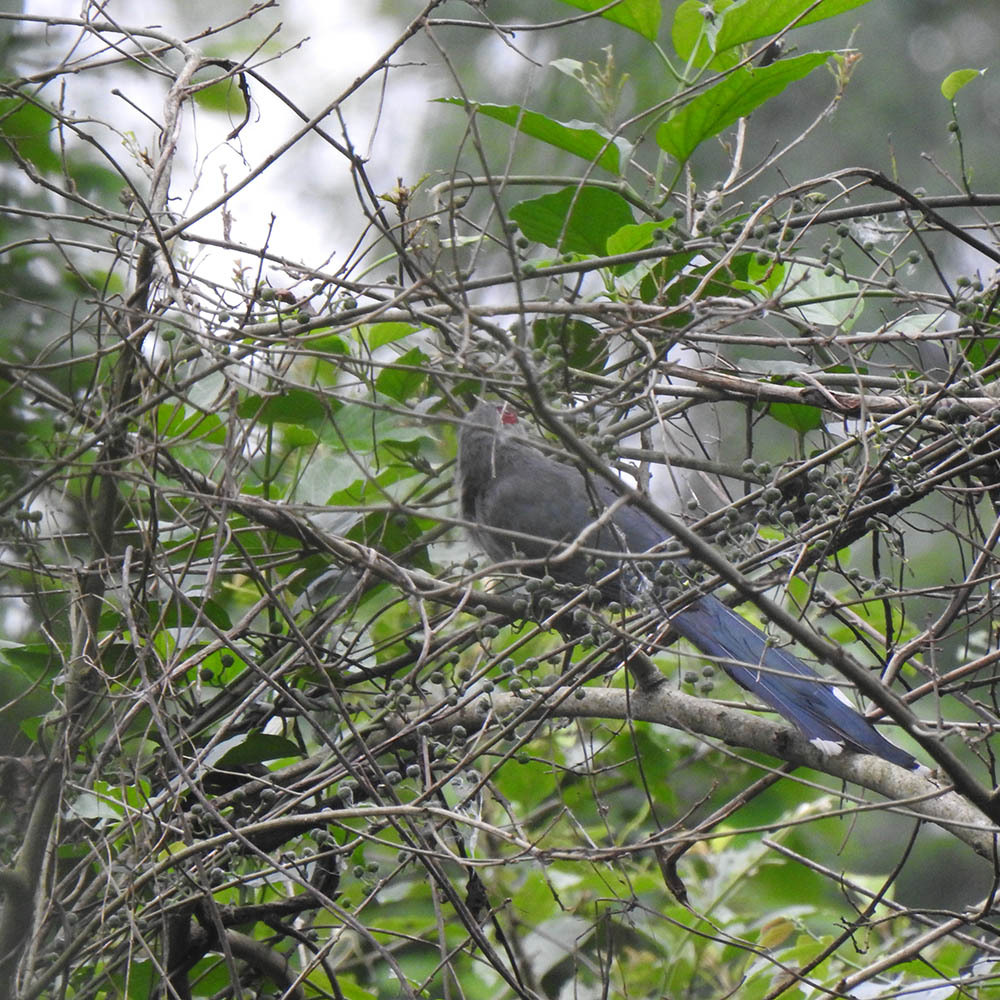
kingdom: Animalia
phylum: Chordata
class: Aves
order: Cuculiformes
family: Cuculidae
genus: Rhopodytes
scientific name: Rhopodytes tristis
